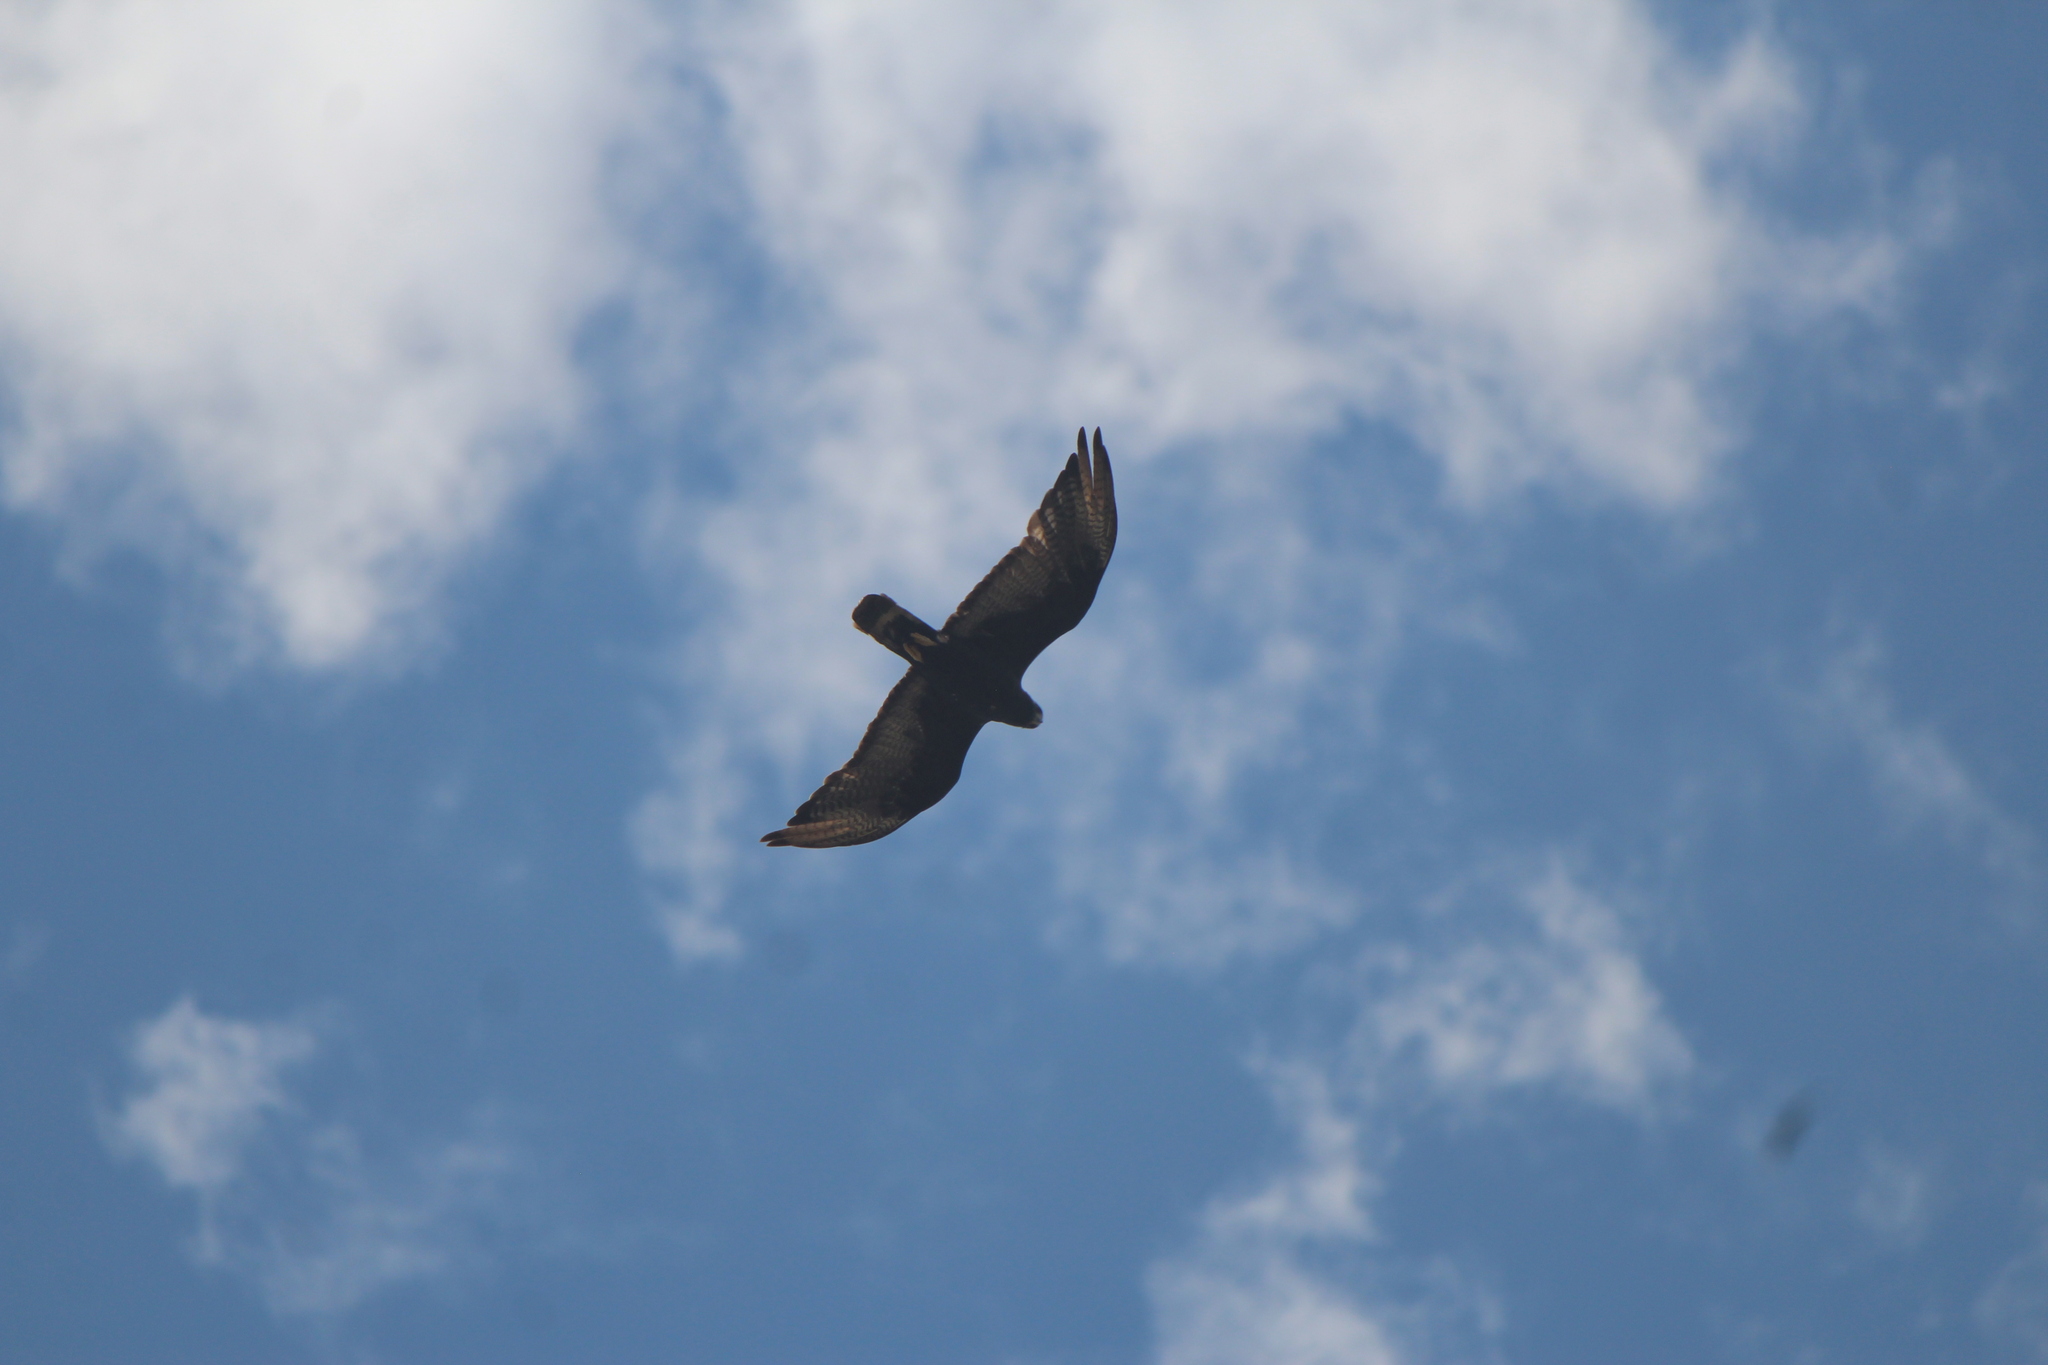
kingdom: Animalia
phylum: Chordata
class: Aves
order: Accipitriformes
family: Accipitridae
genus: Buteo
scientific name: Buteo albonotatus
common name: Zone-tailed hawk
